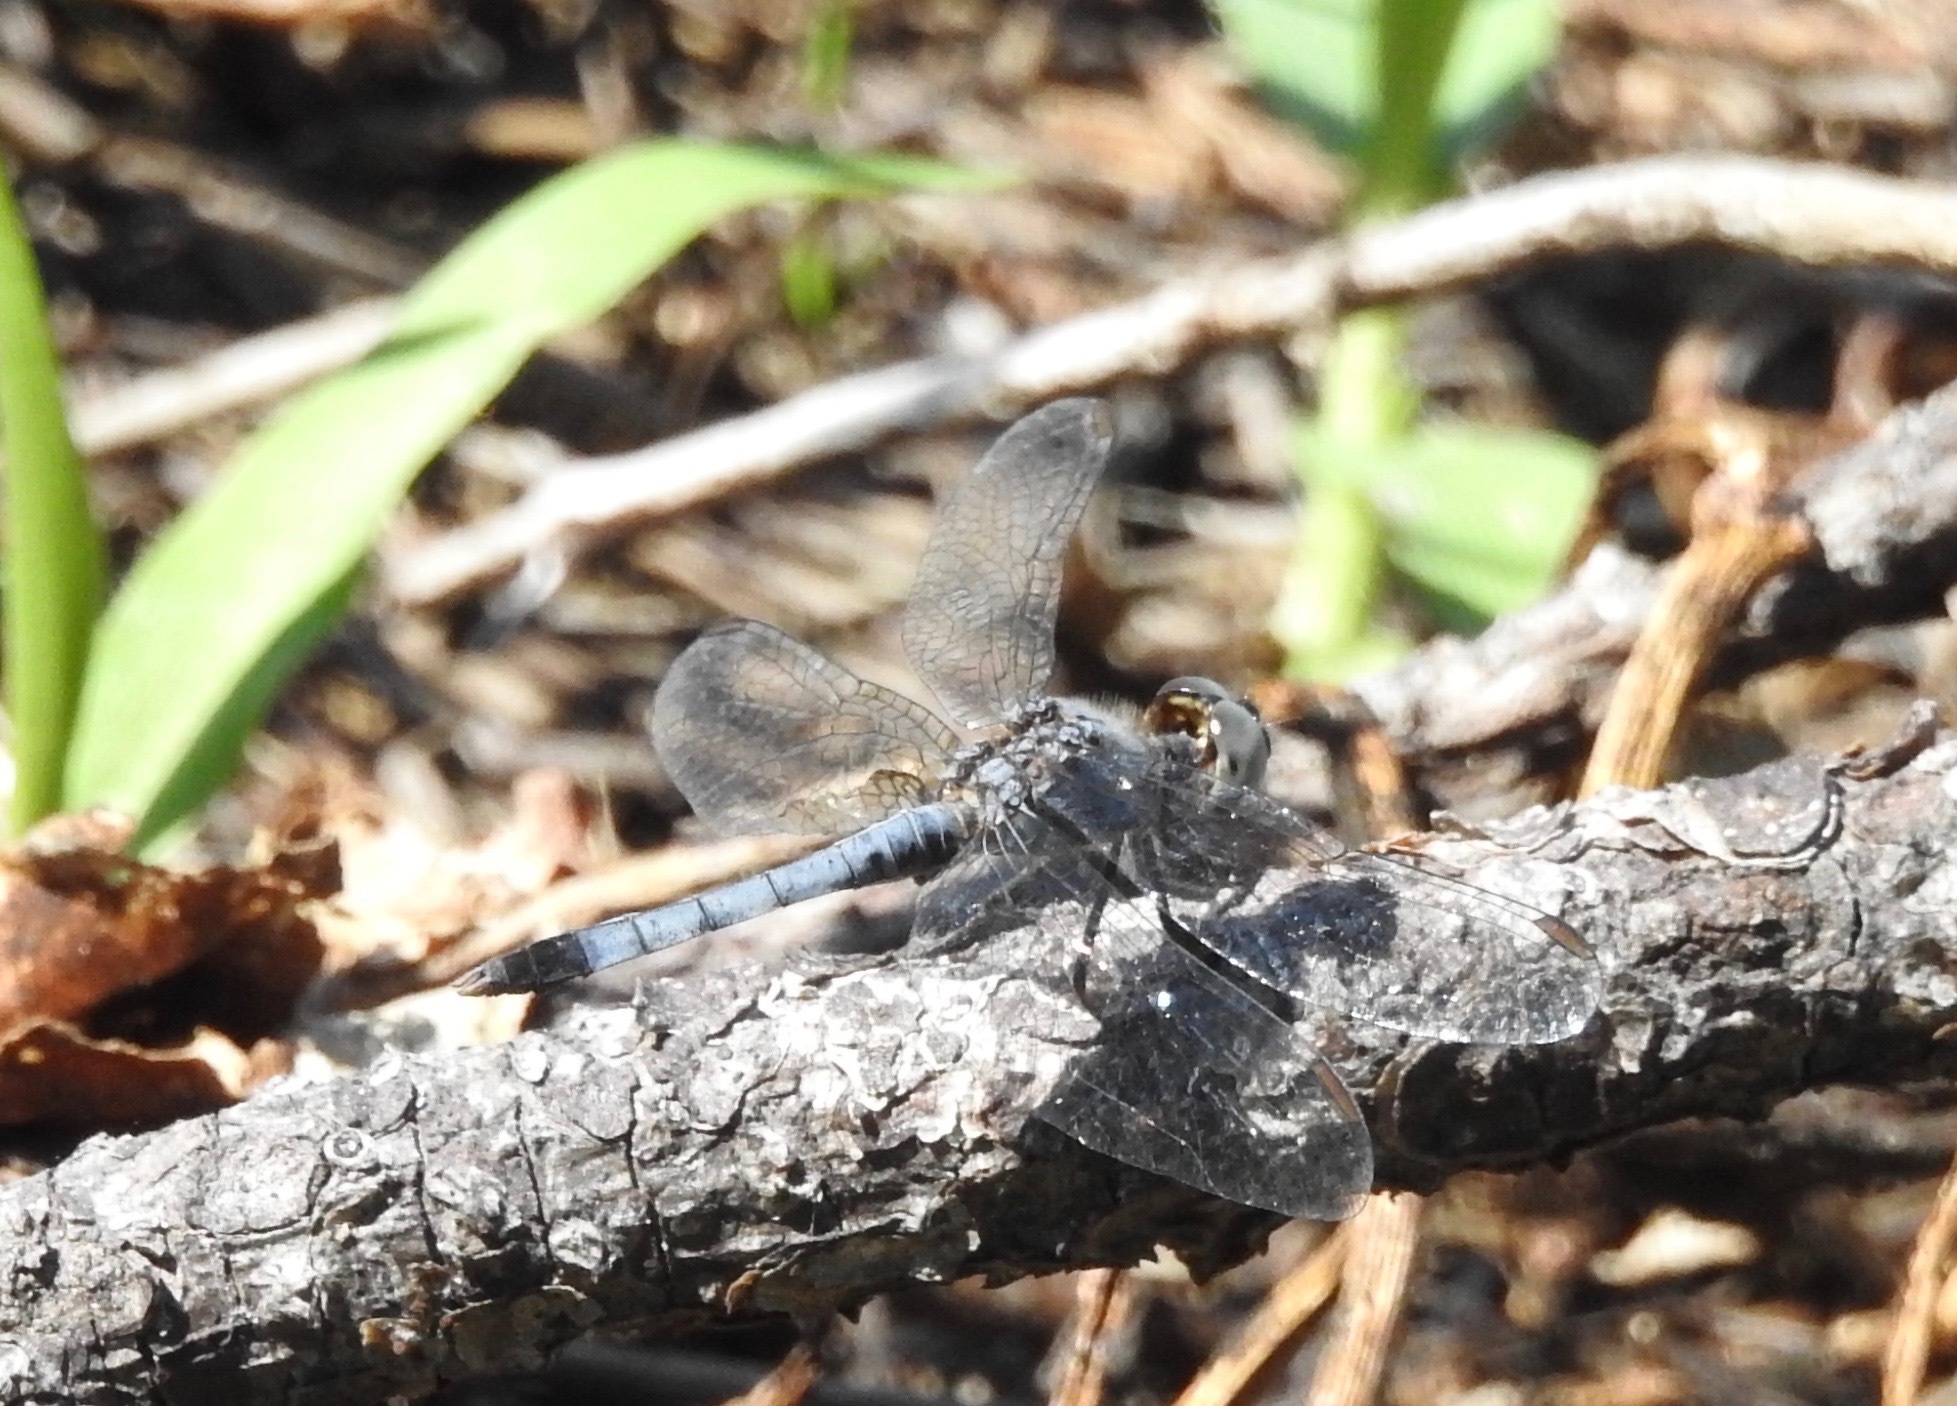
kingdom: Animalia
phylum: Arthropoda
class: Insecta
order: Odonata
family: Libellulidae
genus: Erythrodiplax
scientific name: Erythrodiplax minuscula
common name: Little blue dragonlet
